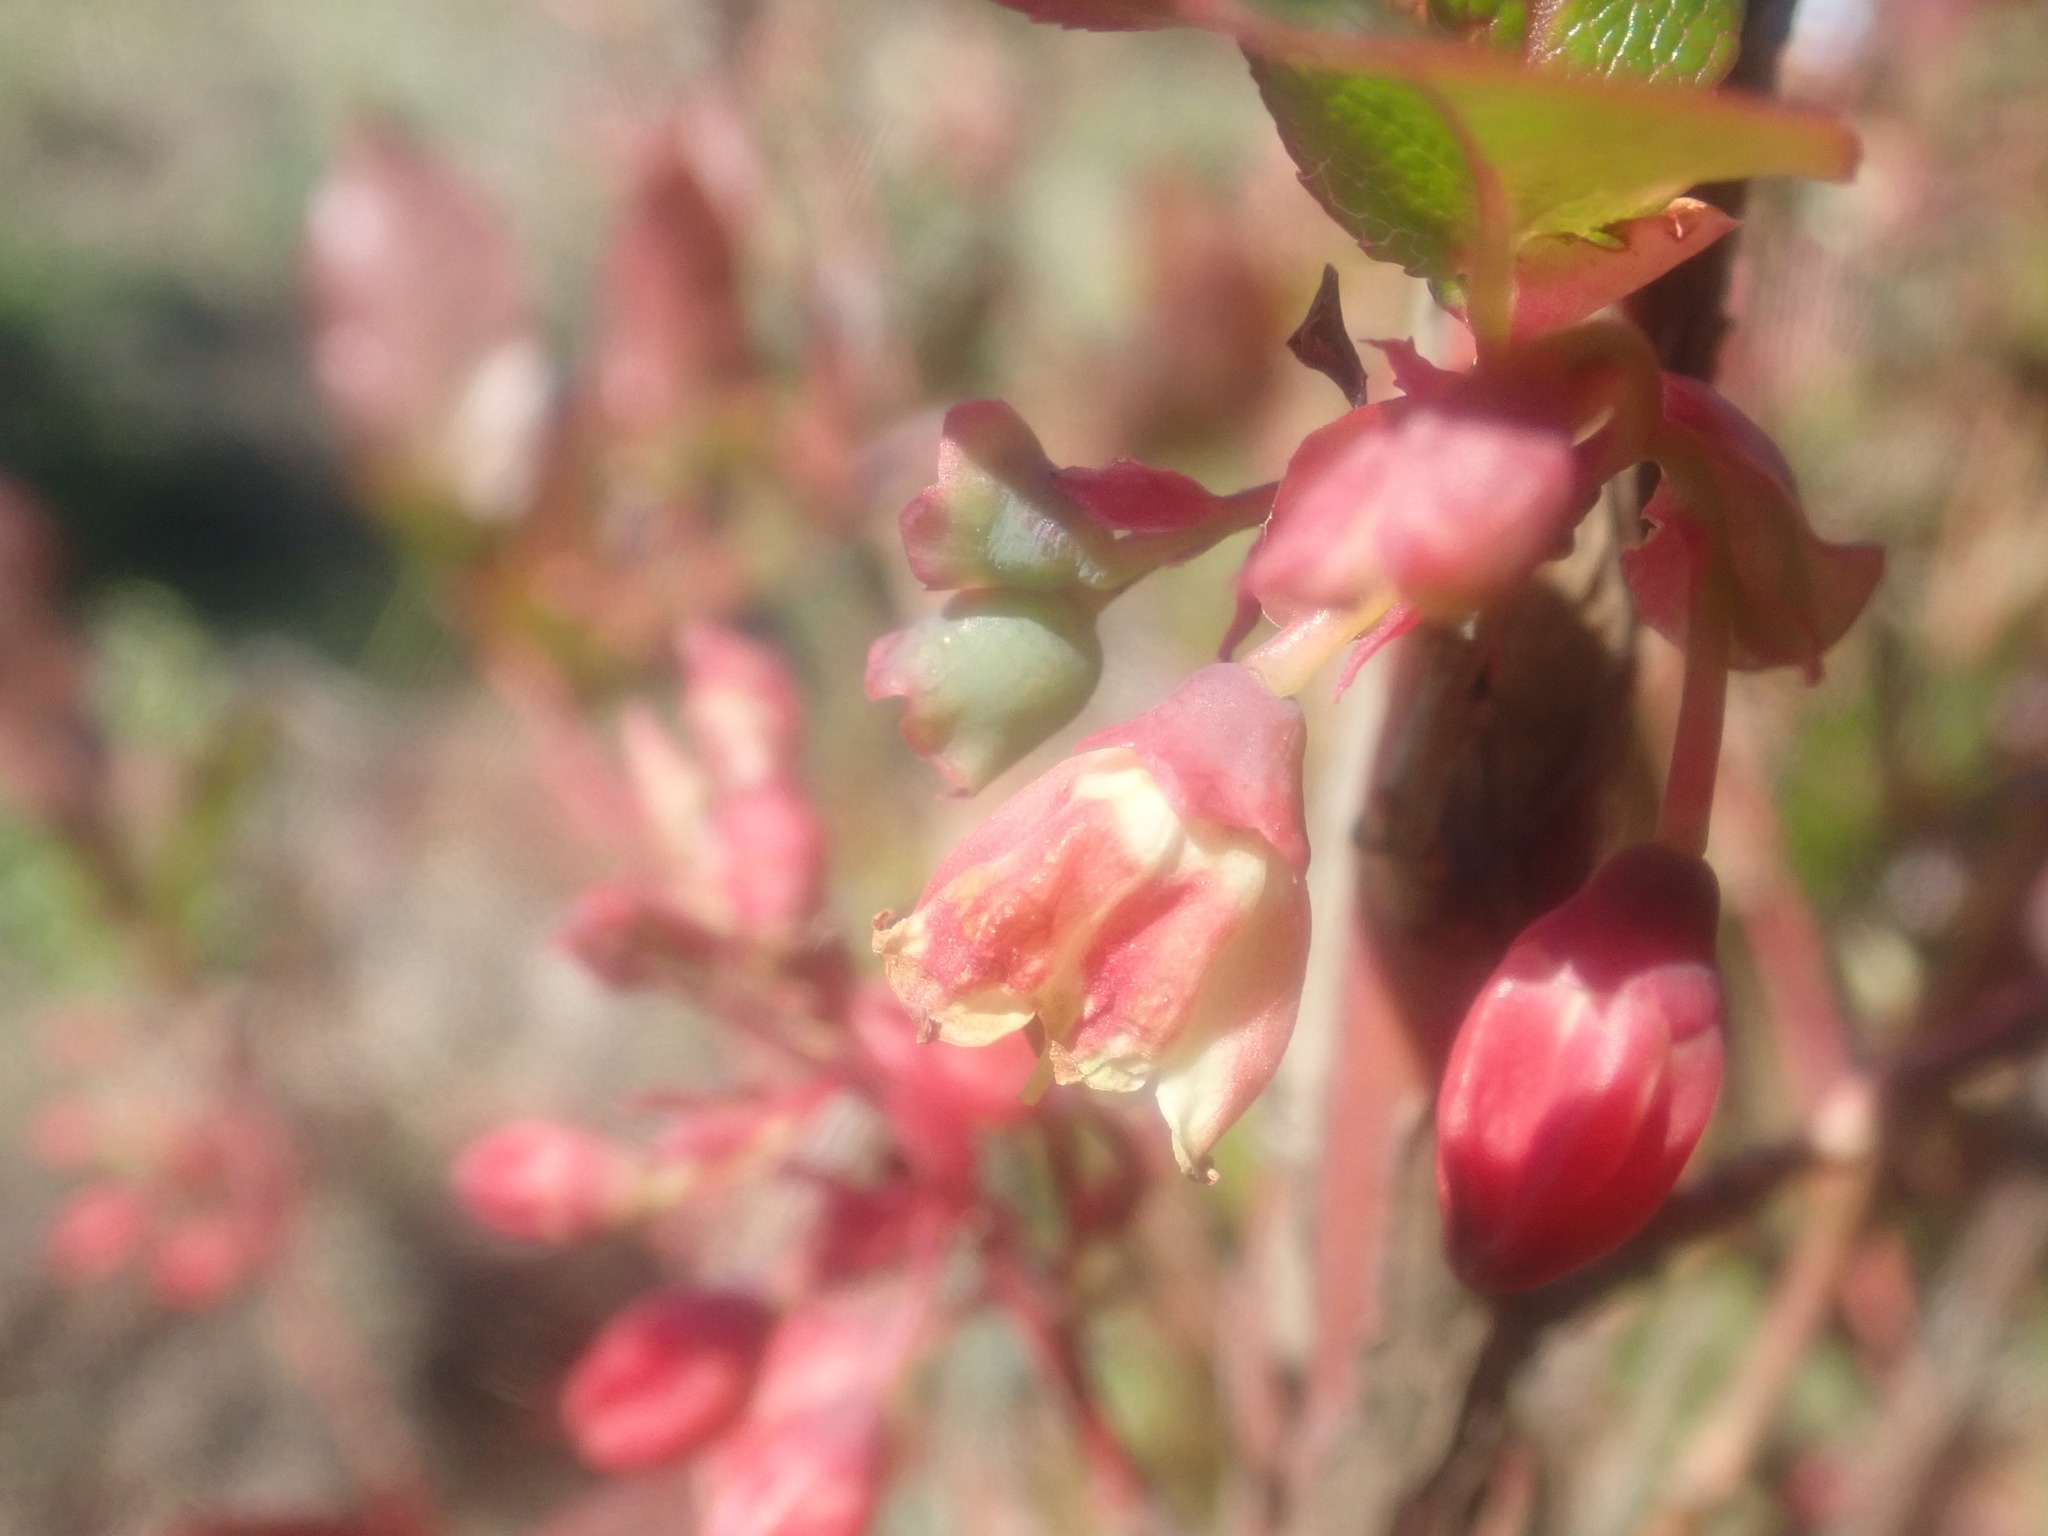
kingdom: Plantae
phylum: Tracheophyta
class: Magnoliopsida
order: Ericales
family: Ericaceae
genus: Vaccinium
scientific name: Vaccinium padifolium
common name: Madeiran blueberry
